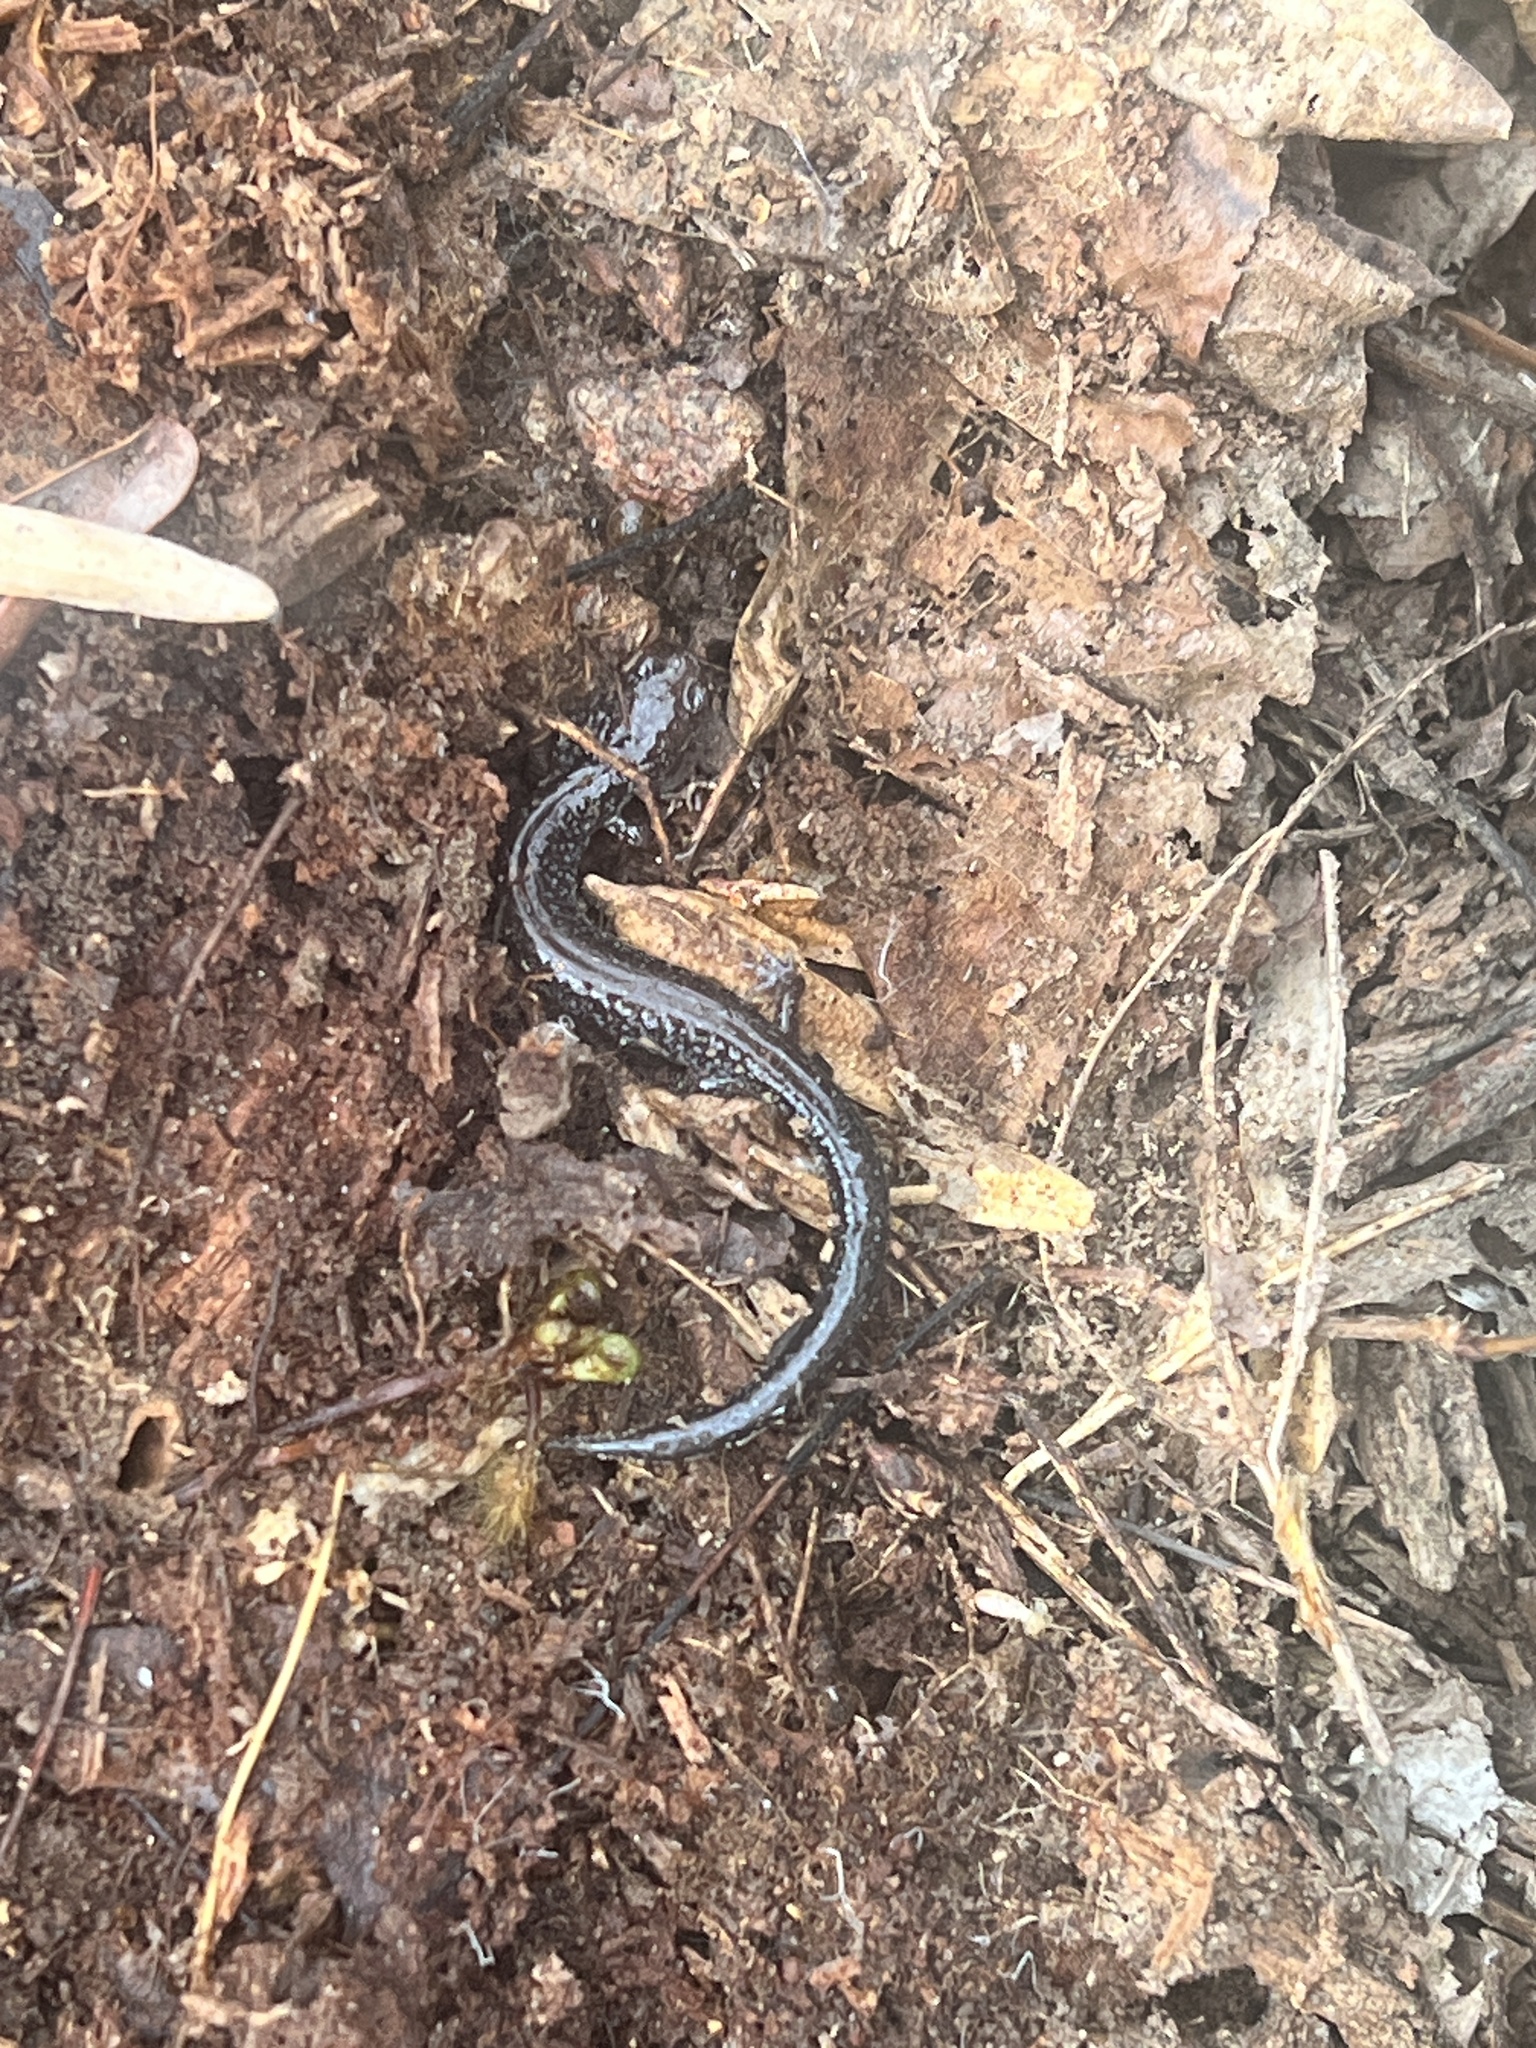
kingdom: Animalia
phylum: Chordata
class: Amphibia
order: Caudata
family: Plethodontidae
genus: Plethodon
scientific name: Plethodon cinereus
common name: Redback salamander
